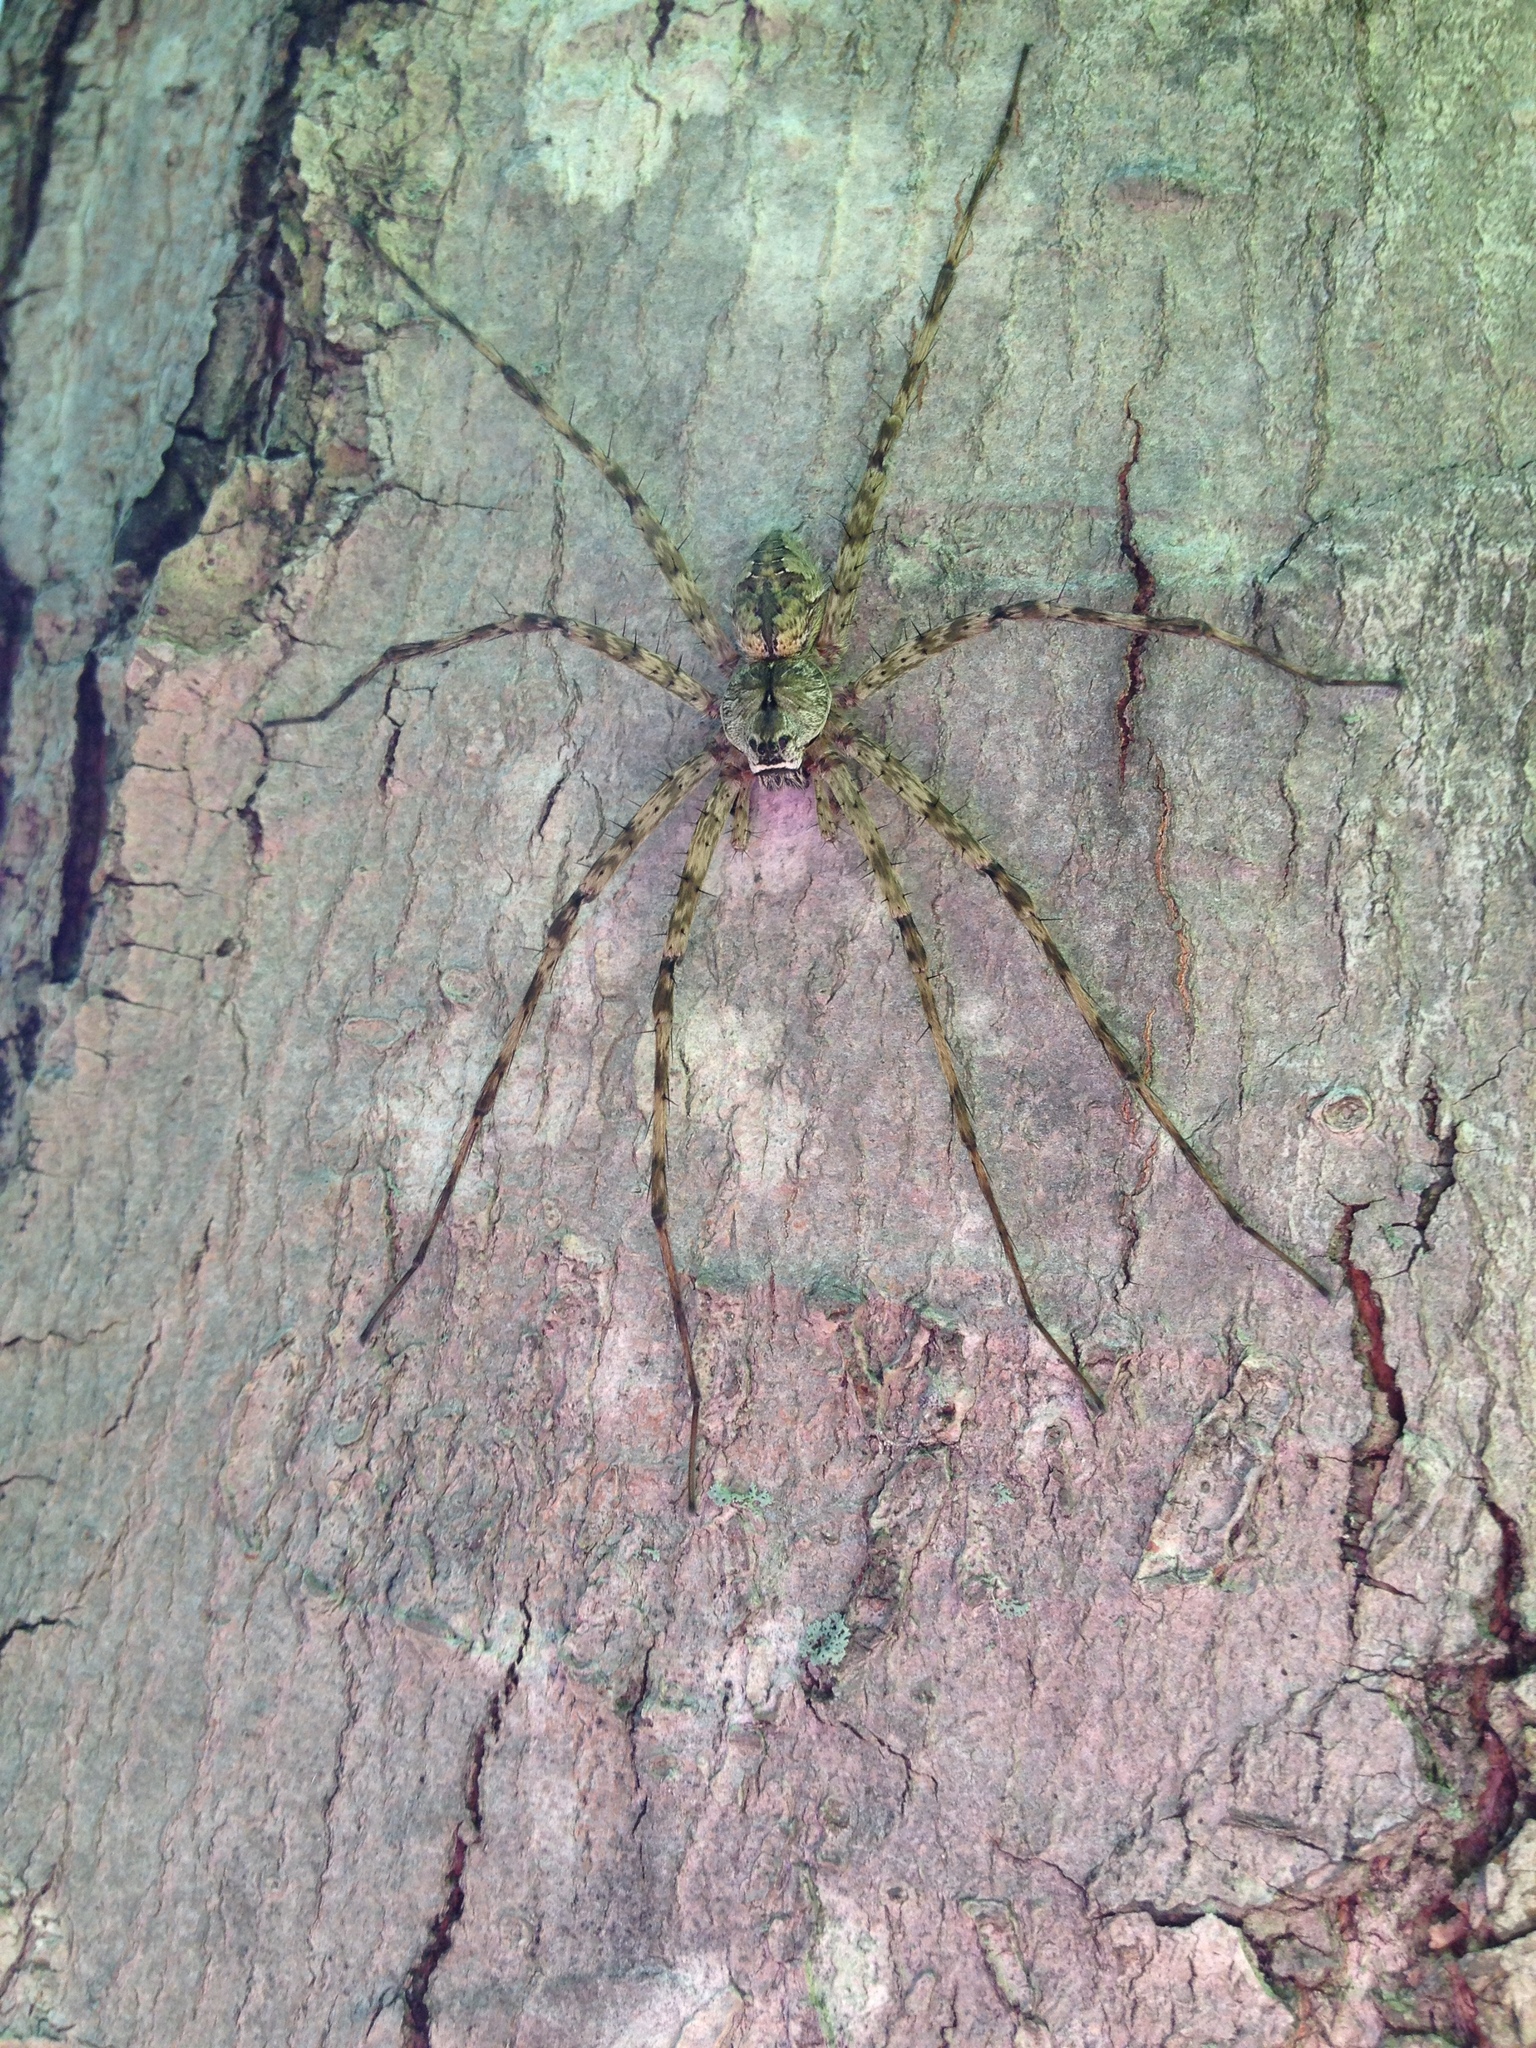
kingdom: Animalia
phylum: Arthropoda
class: Arachnida
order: Araneae
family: Pisauridae
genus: Dolomedes
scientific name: Dolomedes albineus
